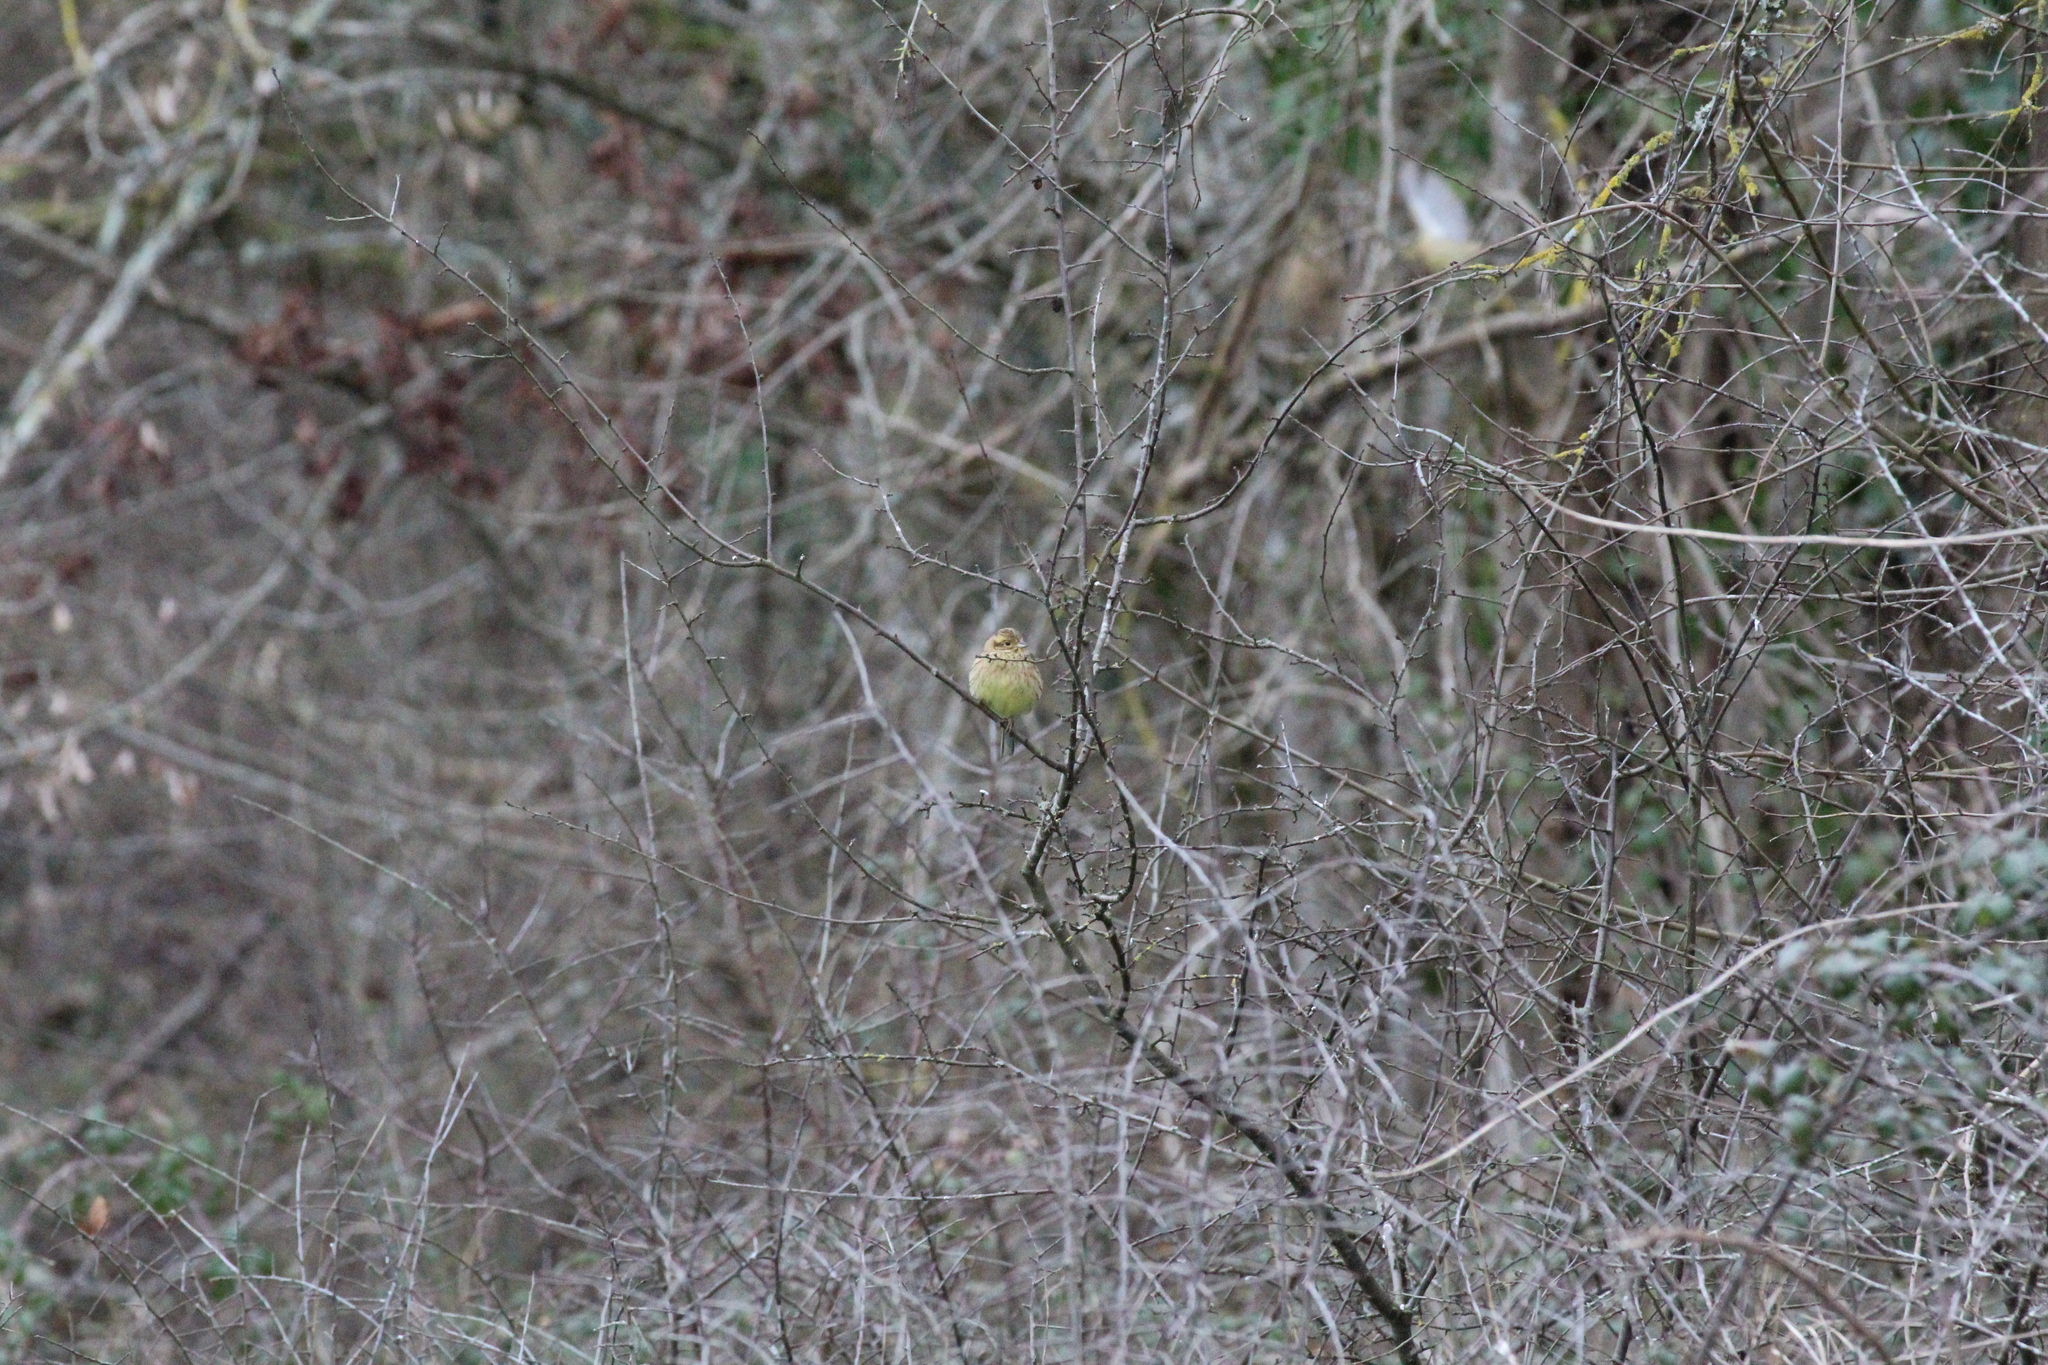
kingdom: Animalia
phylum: Chordata
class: Aves
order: Passeriformes
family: Emberizidae
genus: Emberiza
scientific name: Emberiza cirlus
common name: Cirl bunting
